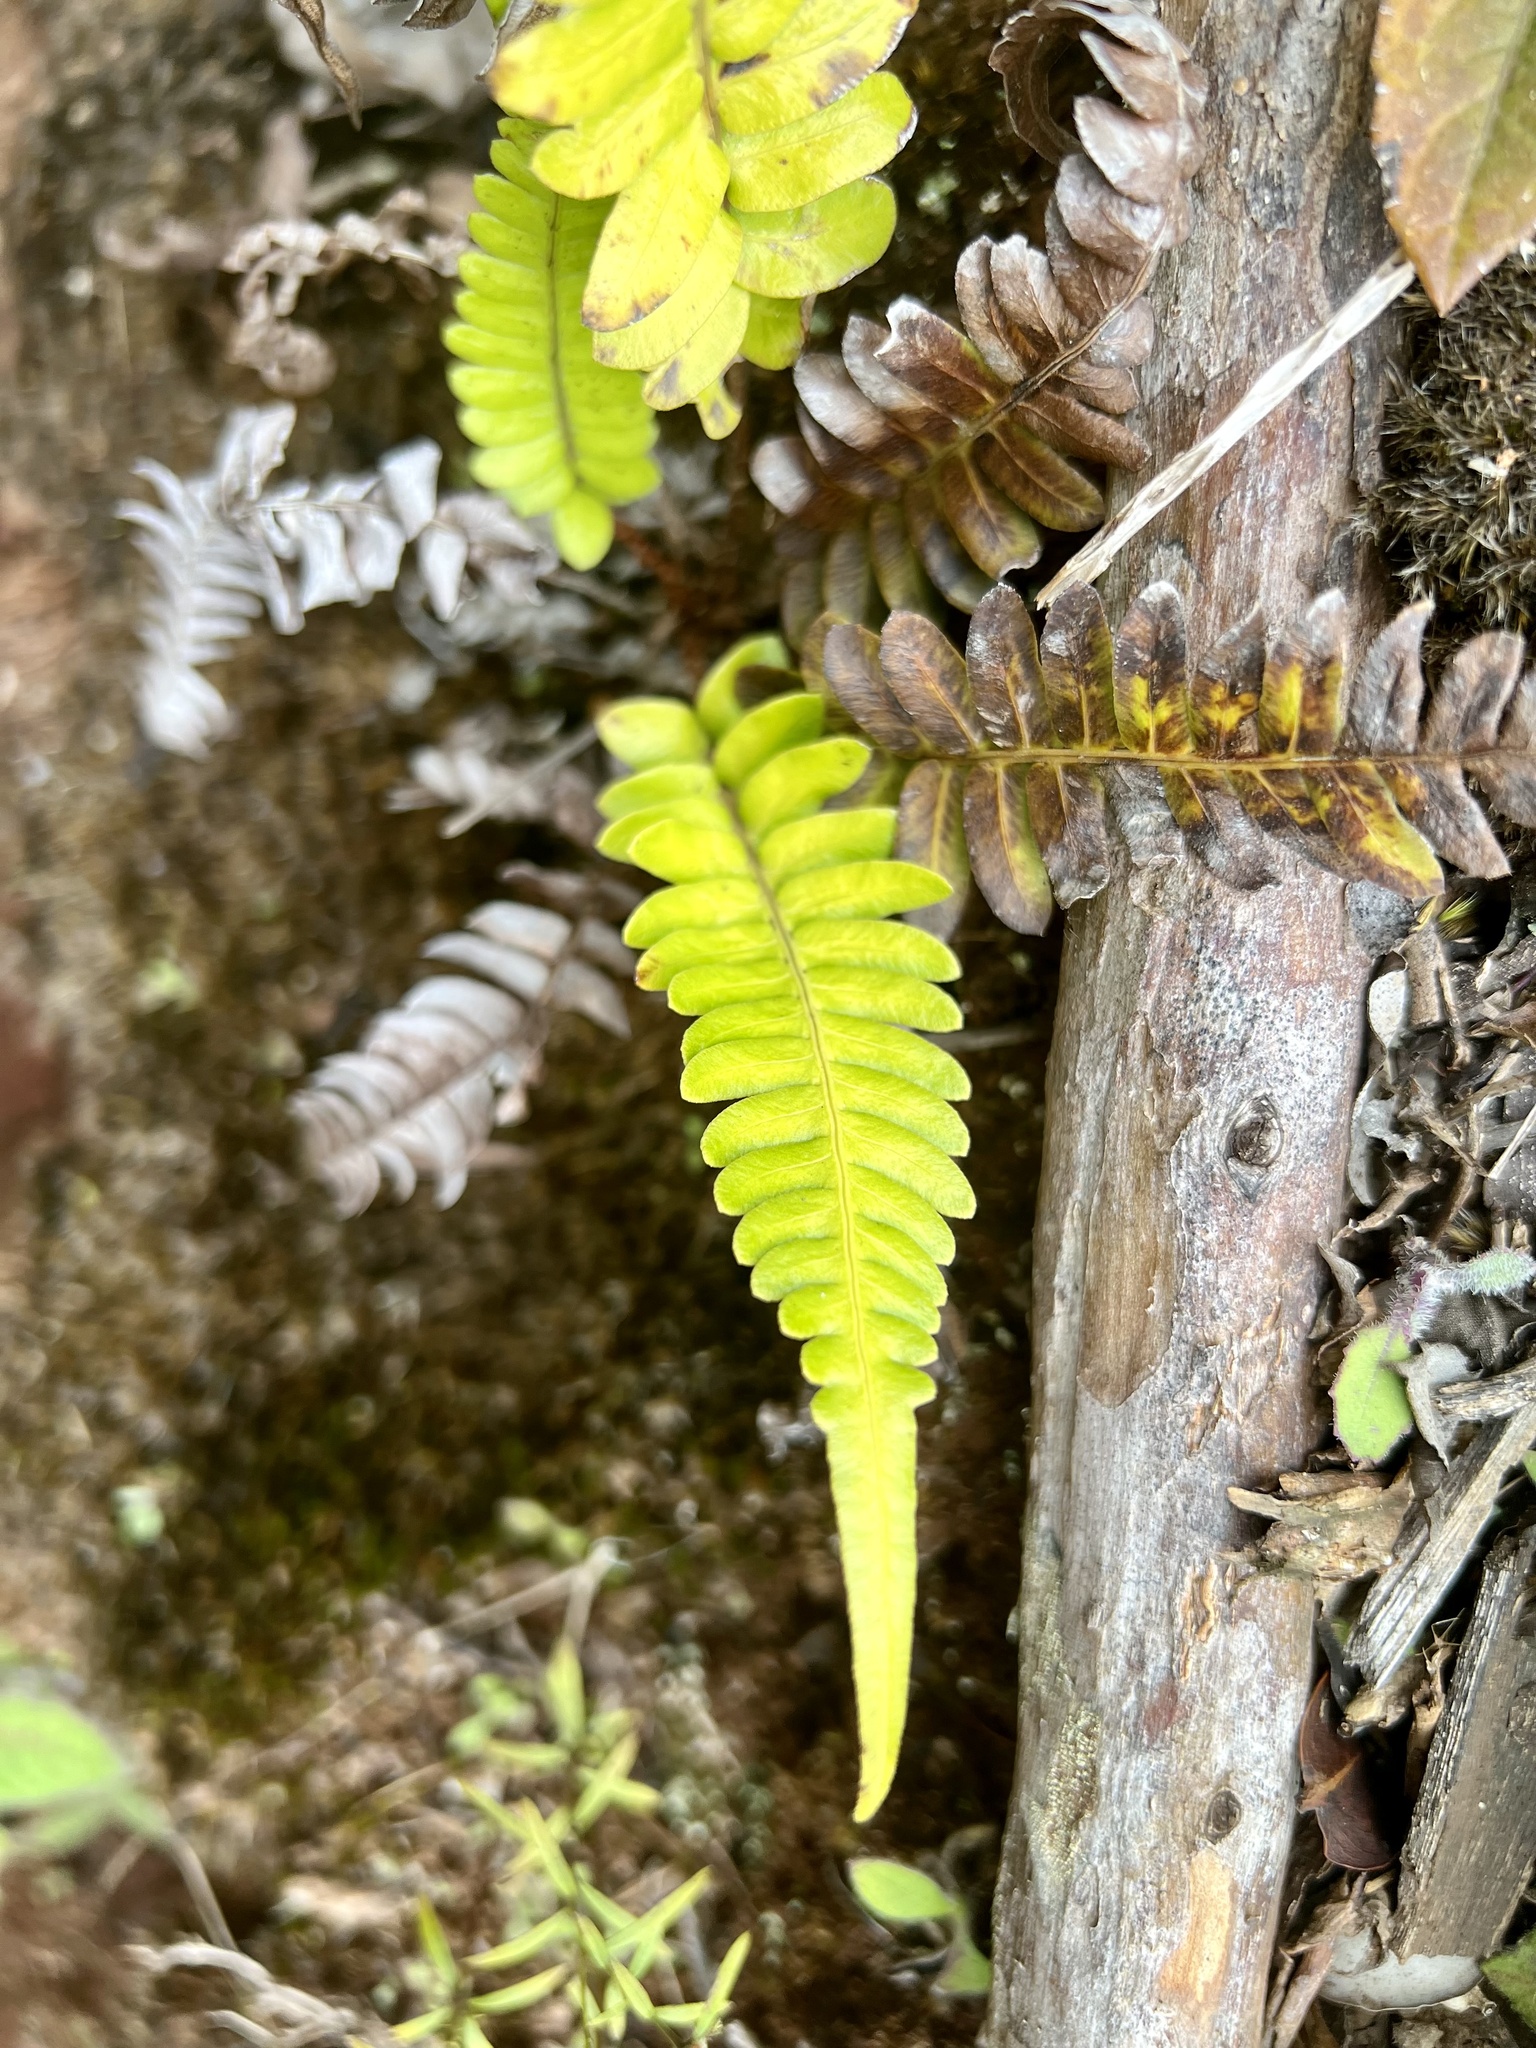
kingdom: Plantae
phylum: Tracheophyta
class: Polypodiopsida
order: Polypodiales
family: Blechnaceae
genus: Blechnum
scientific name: Blechnum appendiculatum
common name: Palm fern
